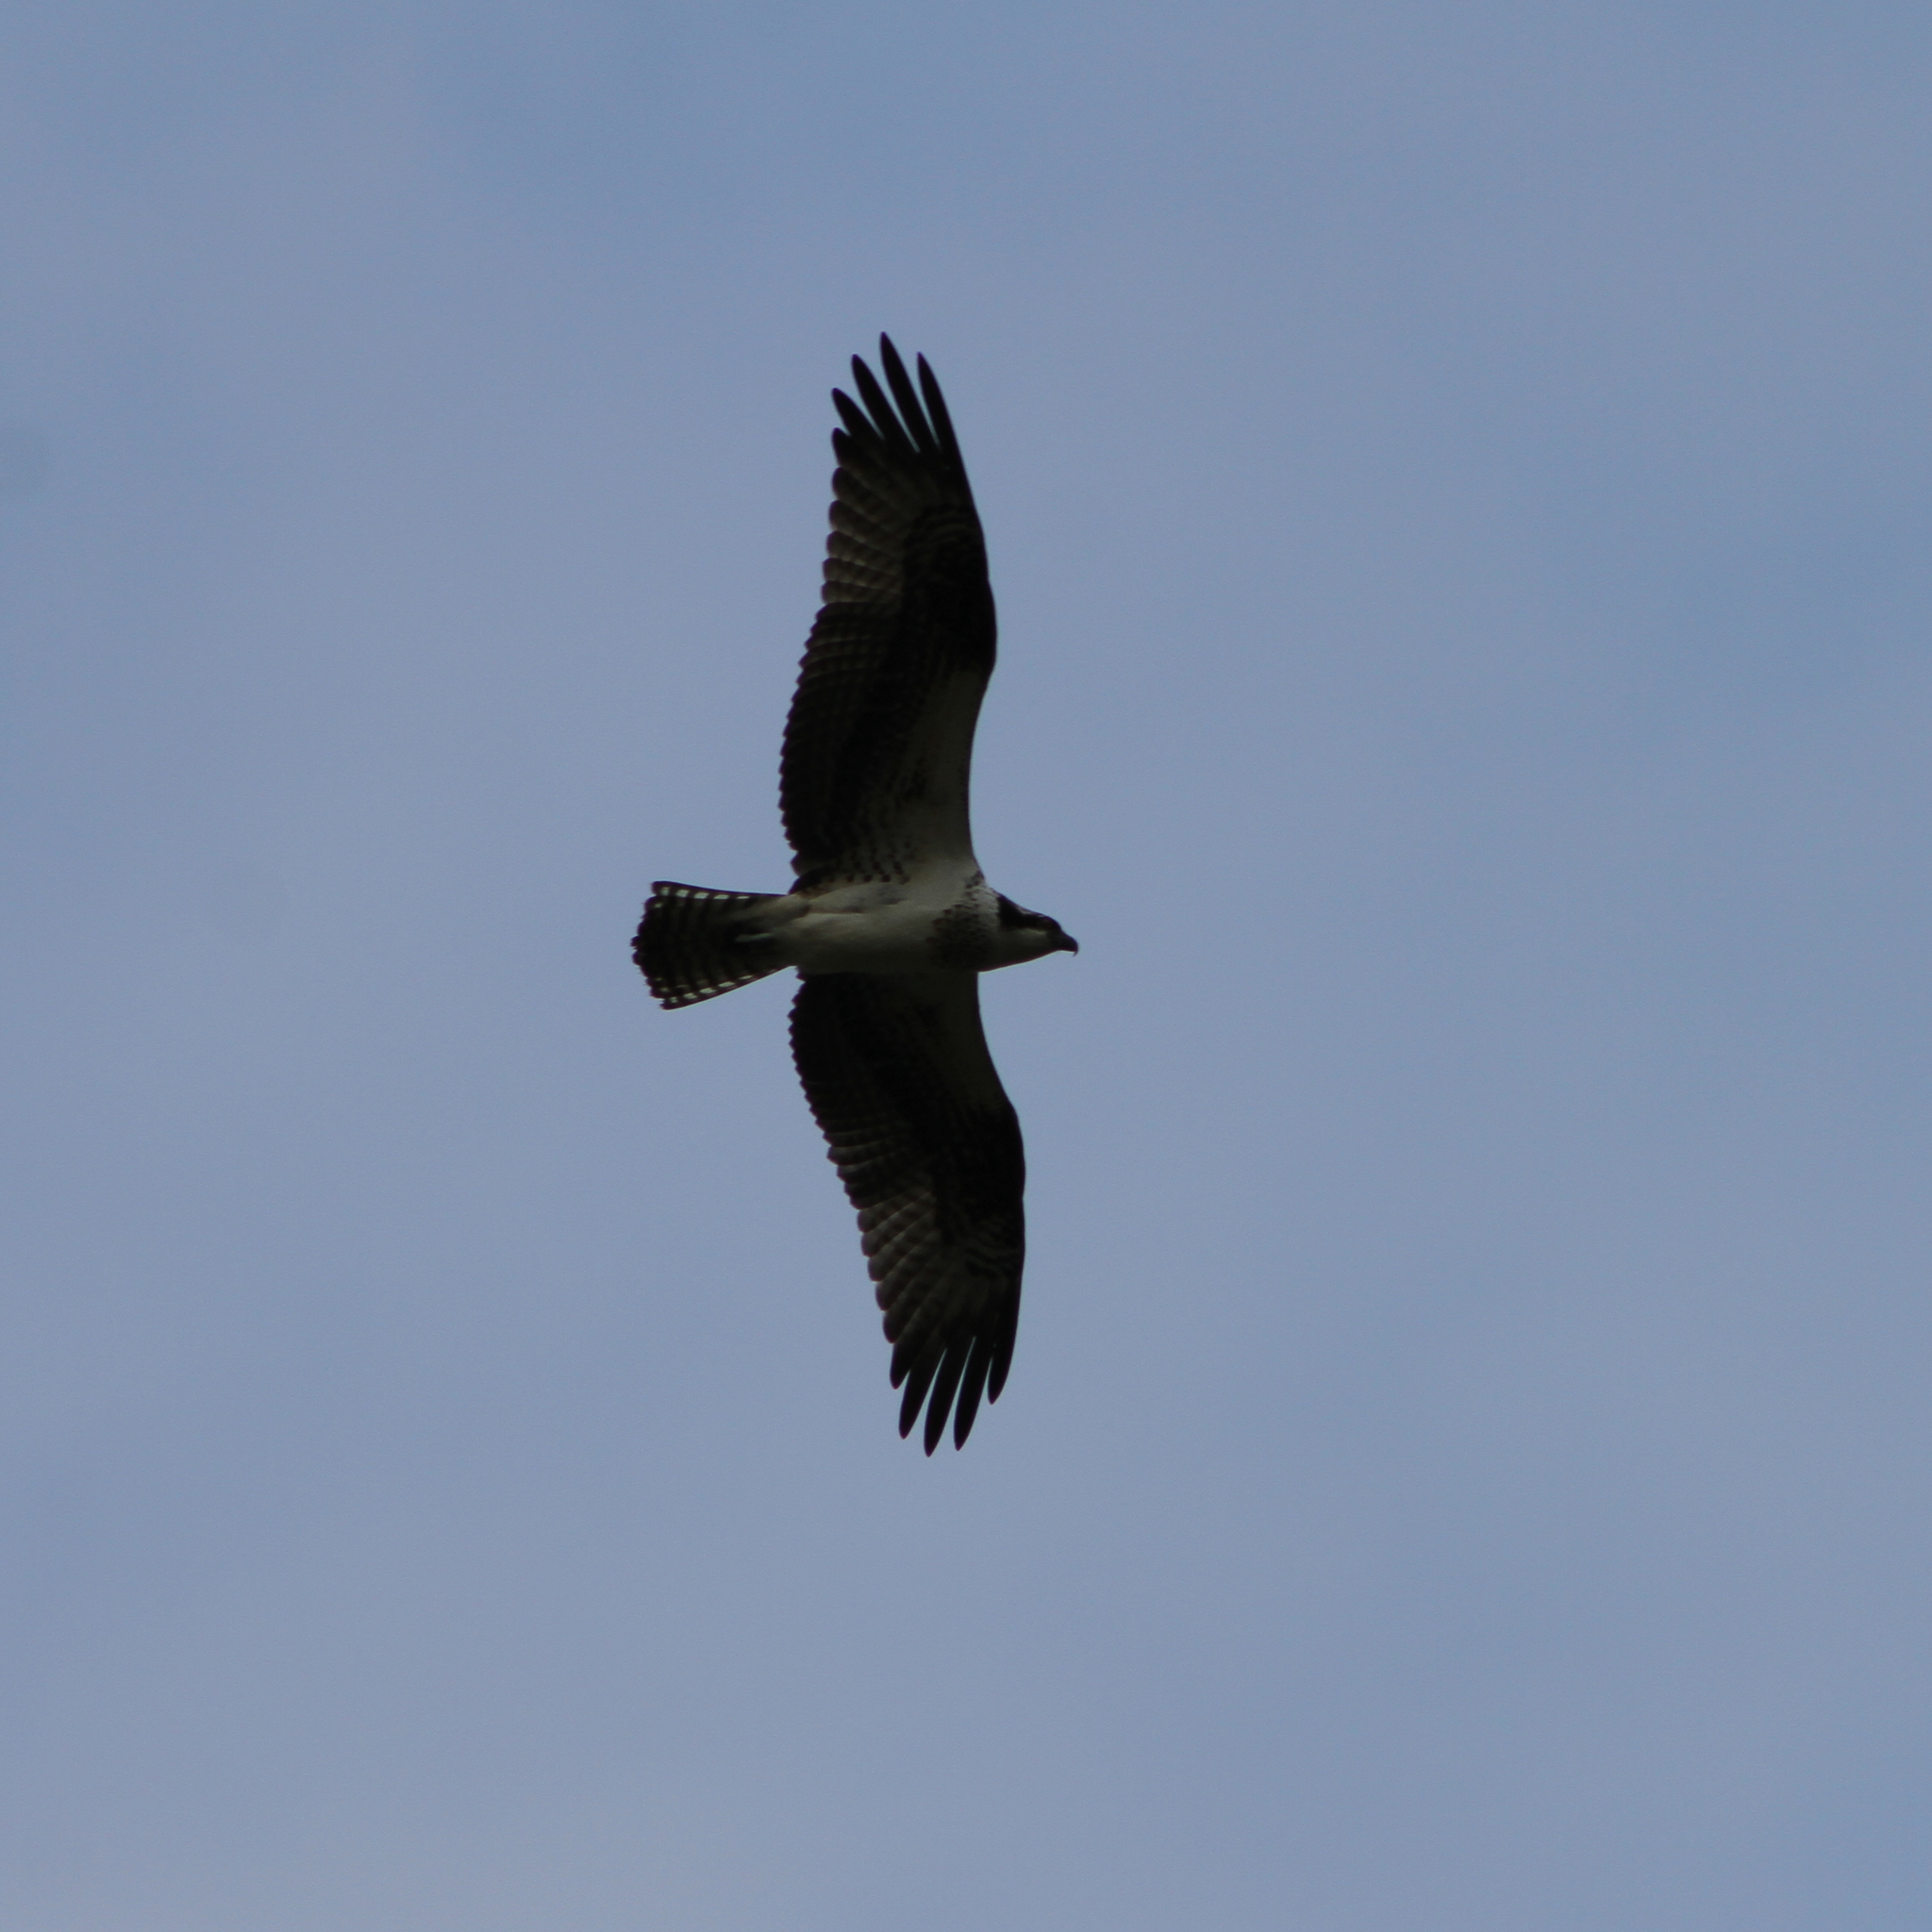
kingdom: Animalia
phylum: Chordata
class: Aves
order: Accipitriformes
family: Pandionidae
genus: Pandion
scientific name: Pandion haliaetus
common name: Osprey
